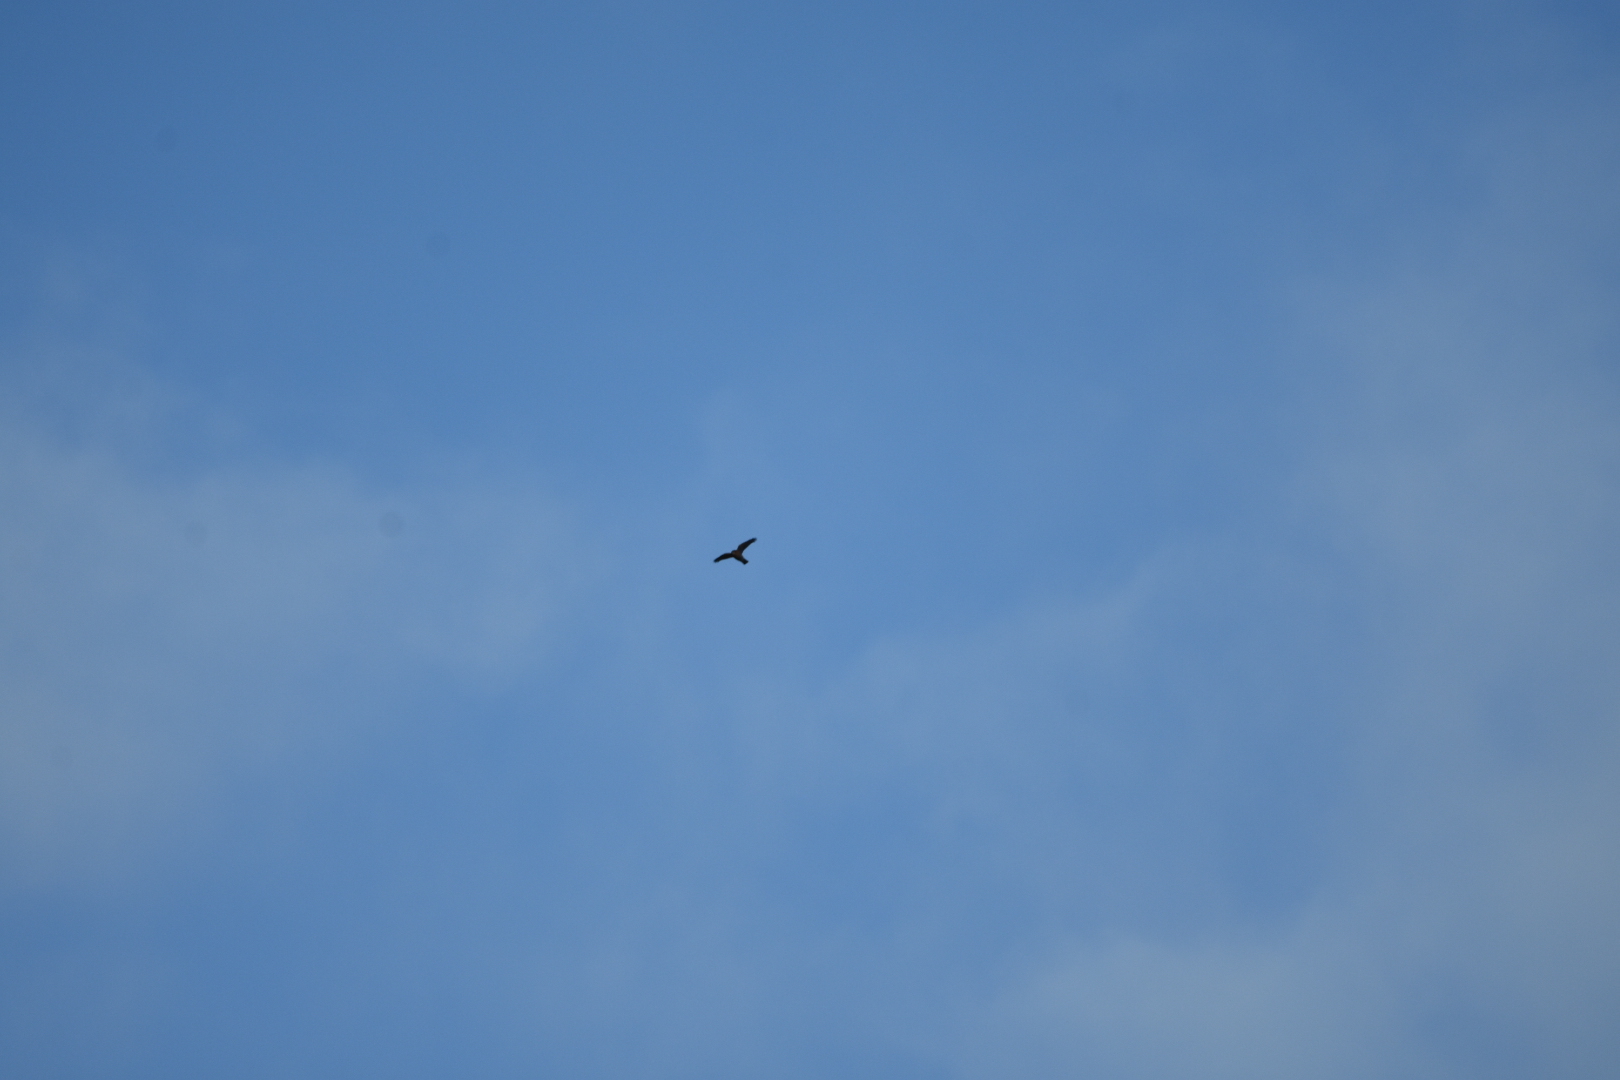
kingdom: Animalia
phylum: Chordata
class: Aves
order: Accipitriformes
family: Accipitridae
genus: Accipiter
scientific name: Accipiter nisus
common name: Eurasian sparrowhawk
